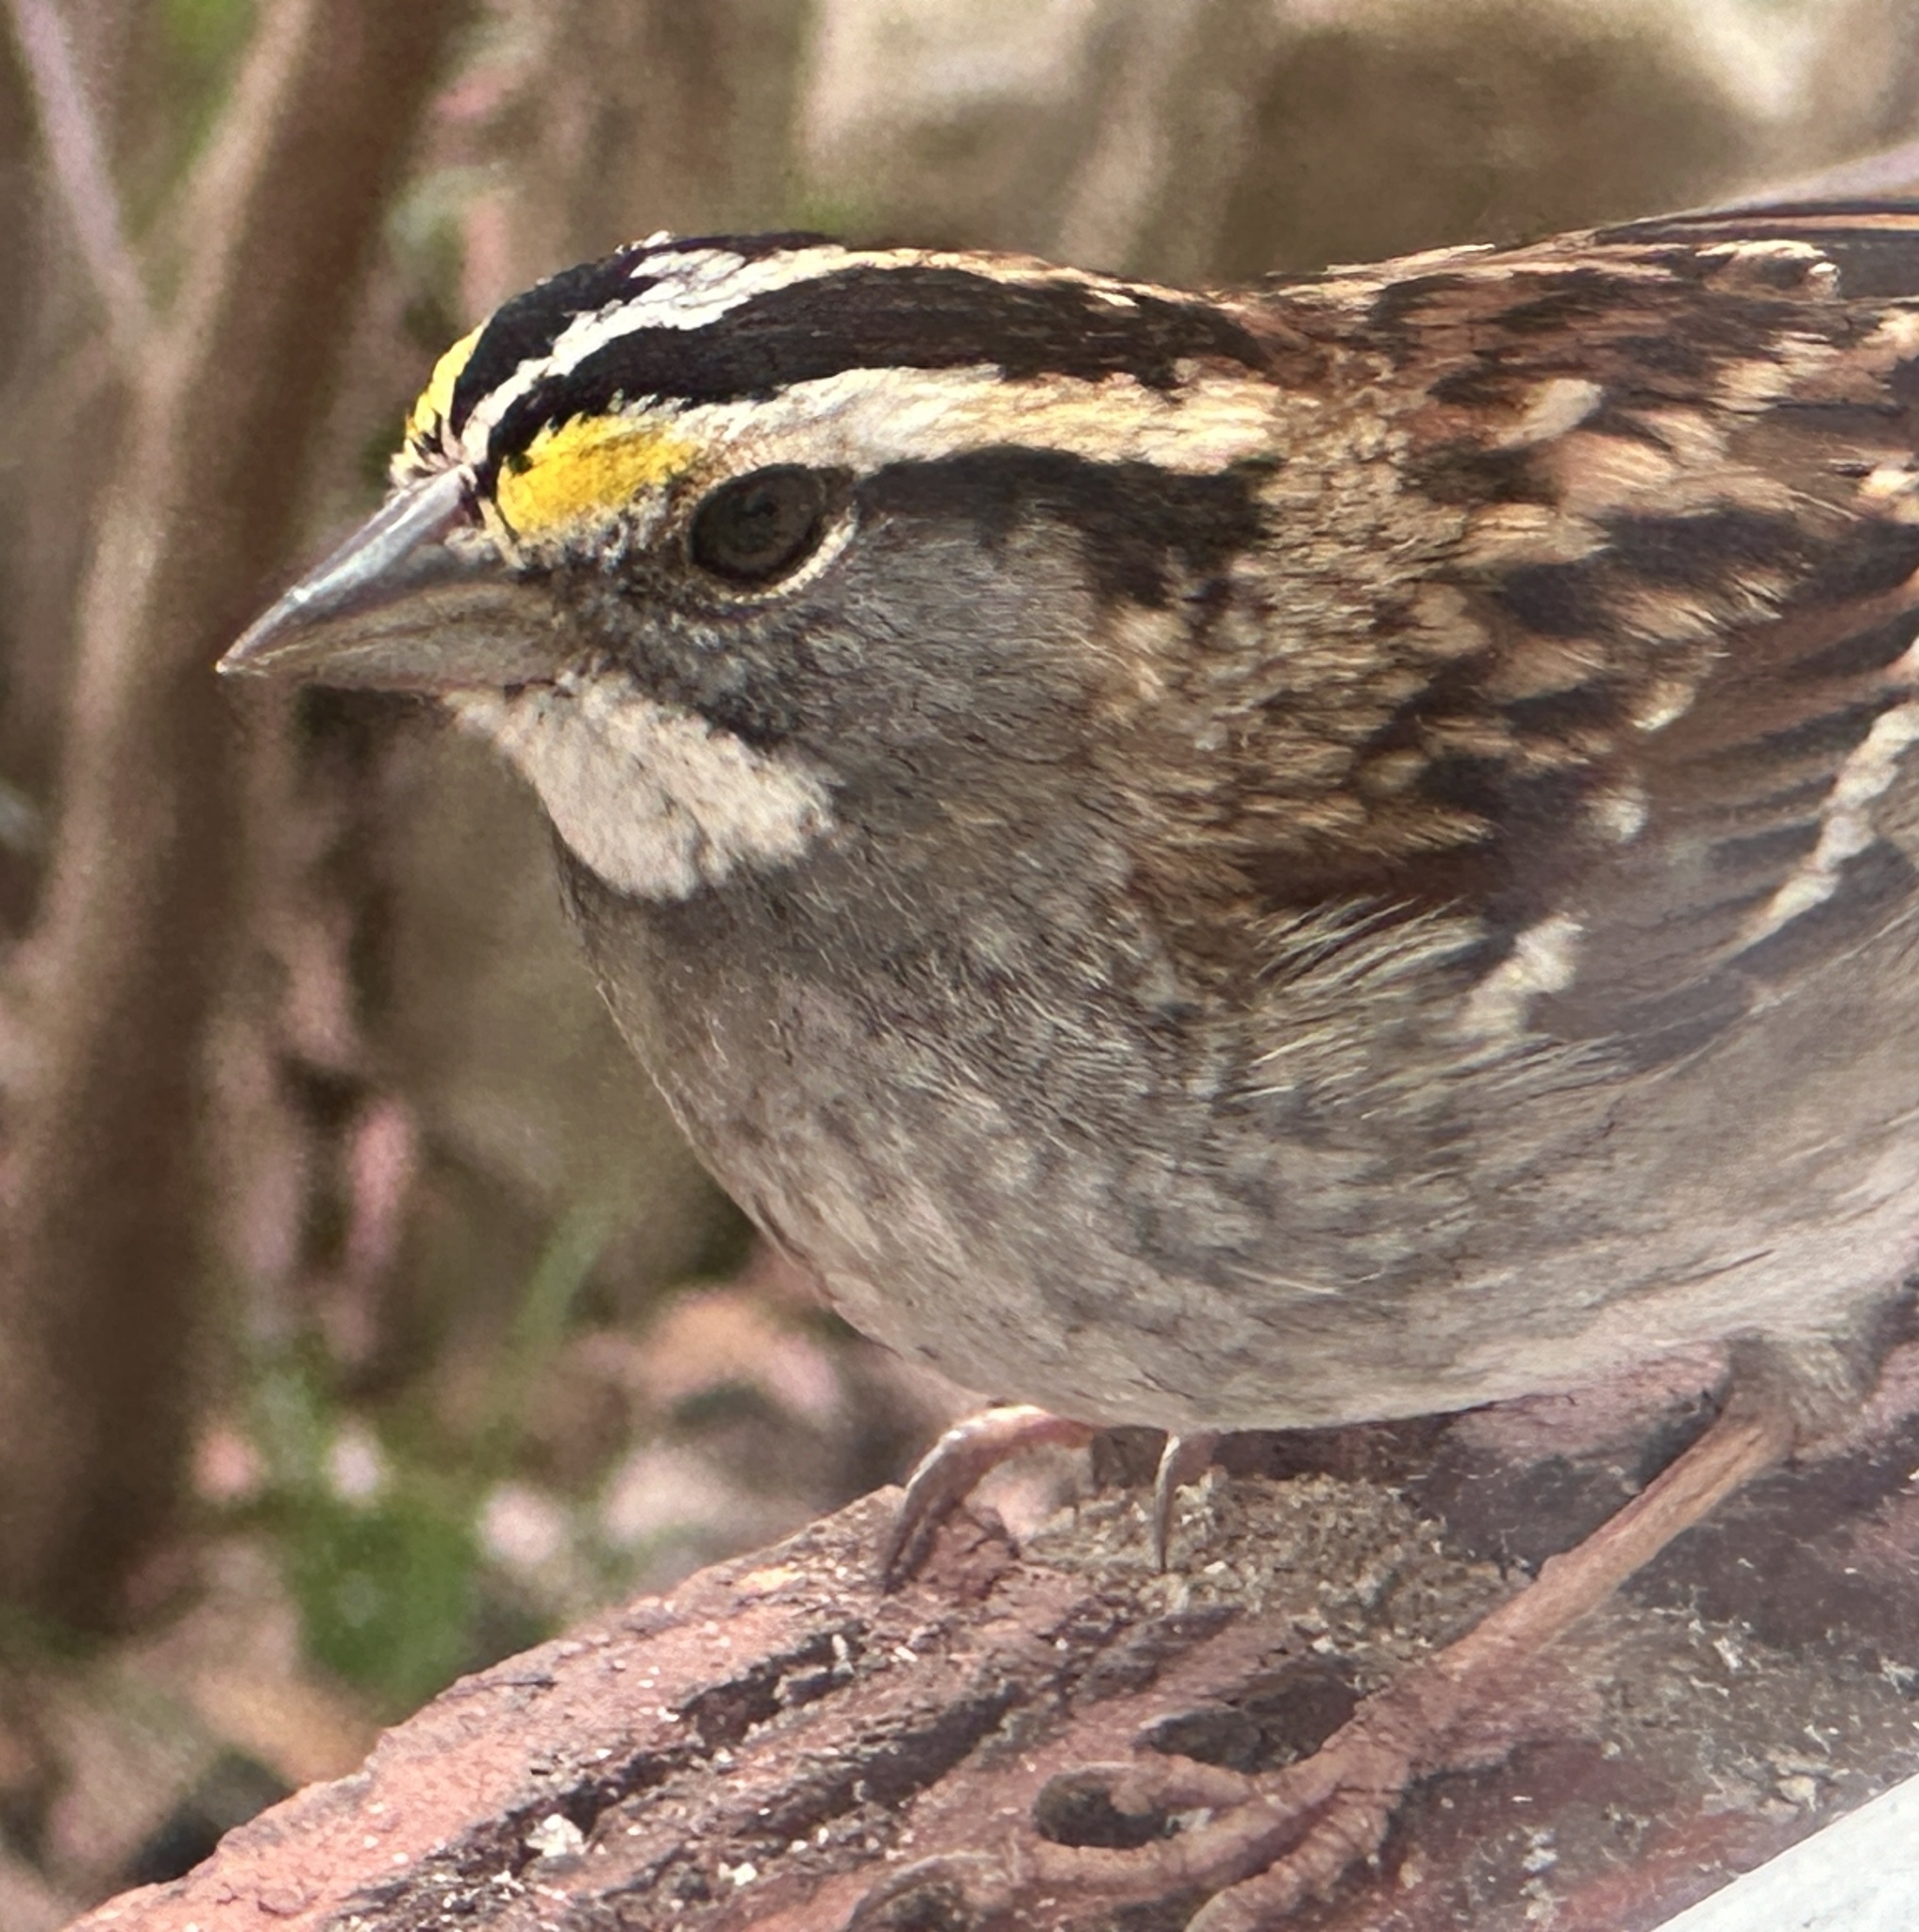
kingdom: Animalia
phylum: Chordata
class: Aves
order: Passeriformes
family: Passerellidae
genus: Zonotrichia
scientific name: Zonotrichia albicollis
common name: White-throated sparrow
